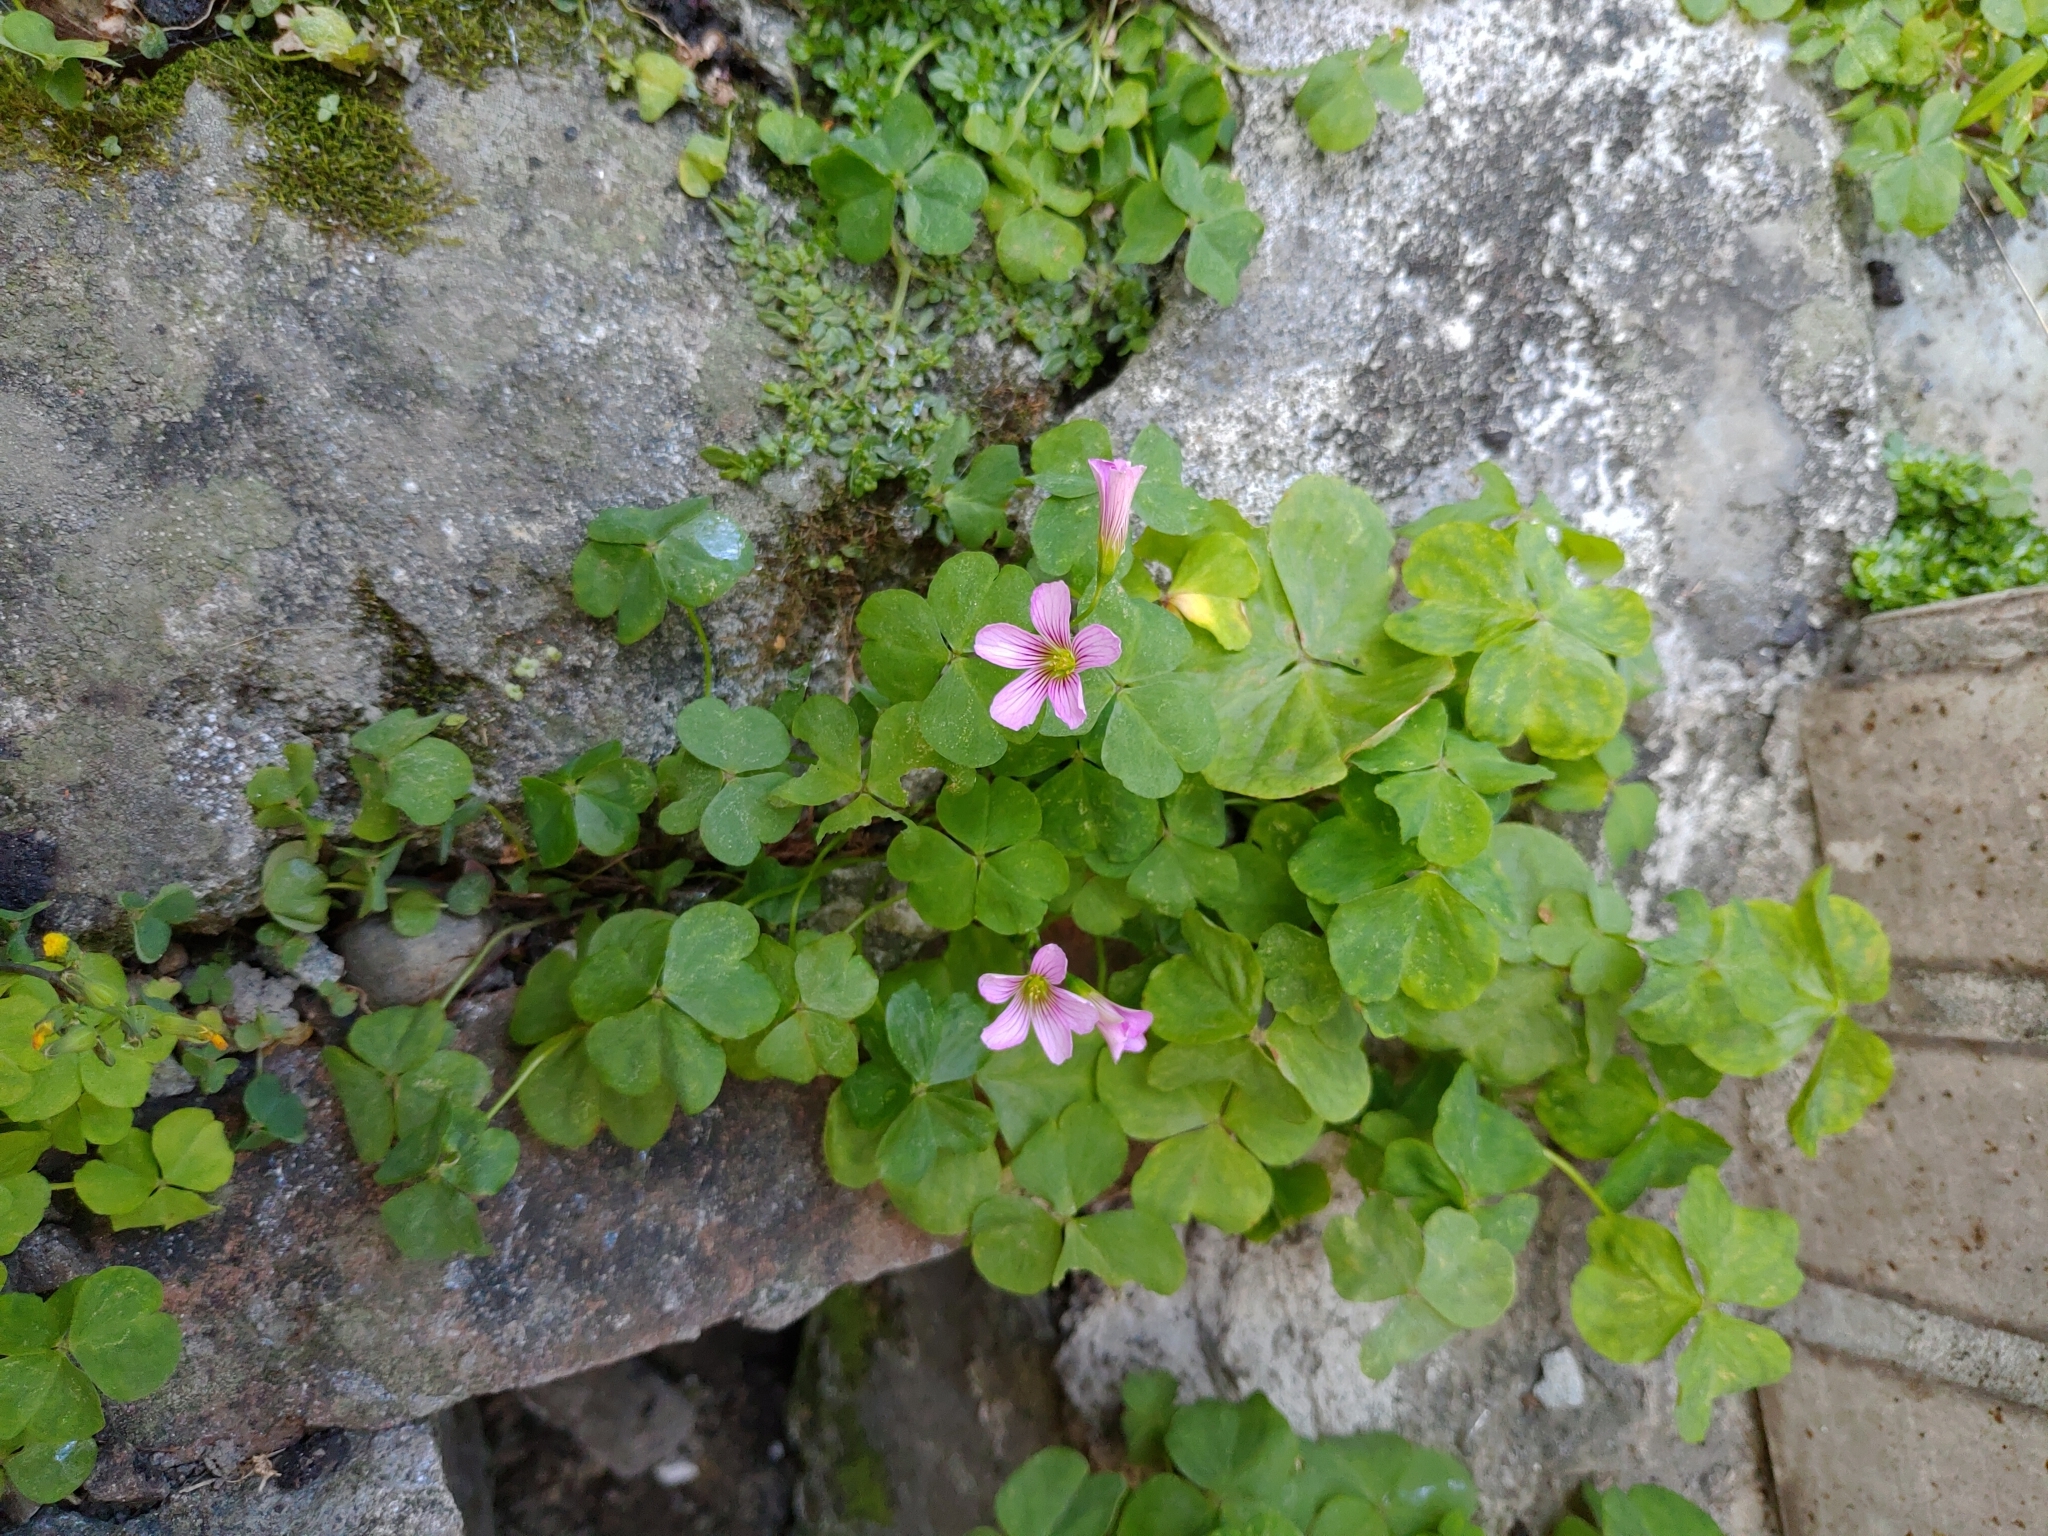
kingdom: Plantae
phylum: Tracheophyta
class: Magnoliopsida
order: Oxalidales
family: Oxalidaceae
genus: Oxalis
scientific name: Oxalis debilis
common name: Large-flowered pink-sorrel
